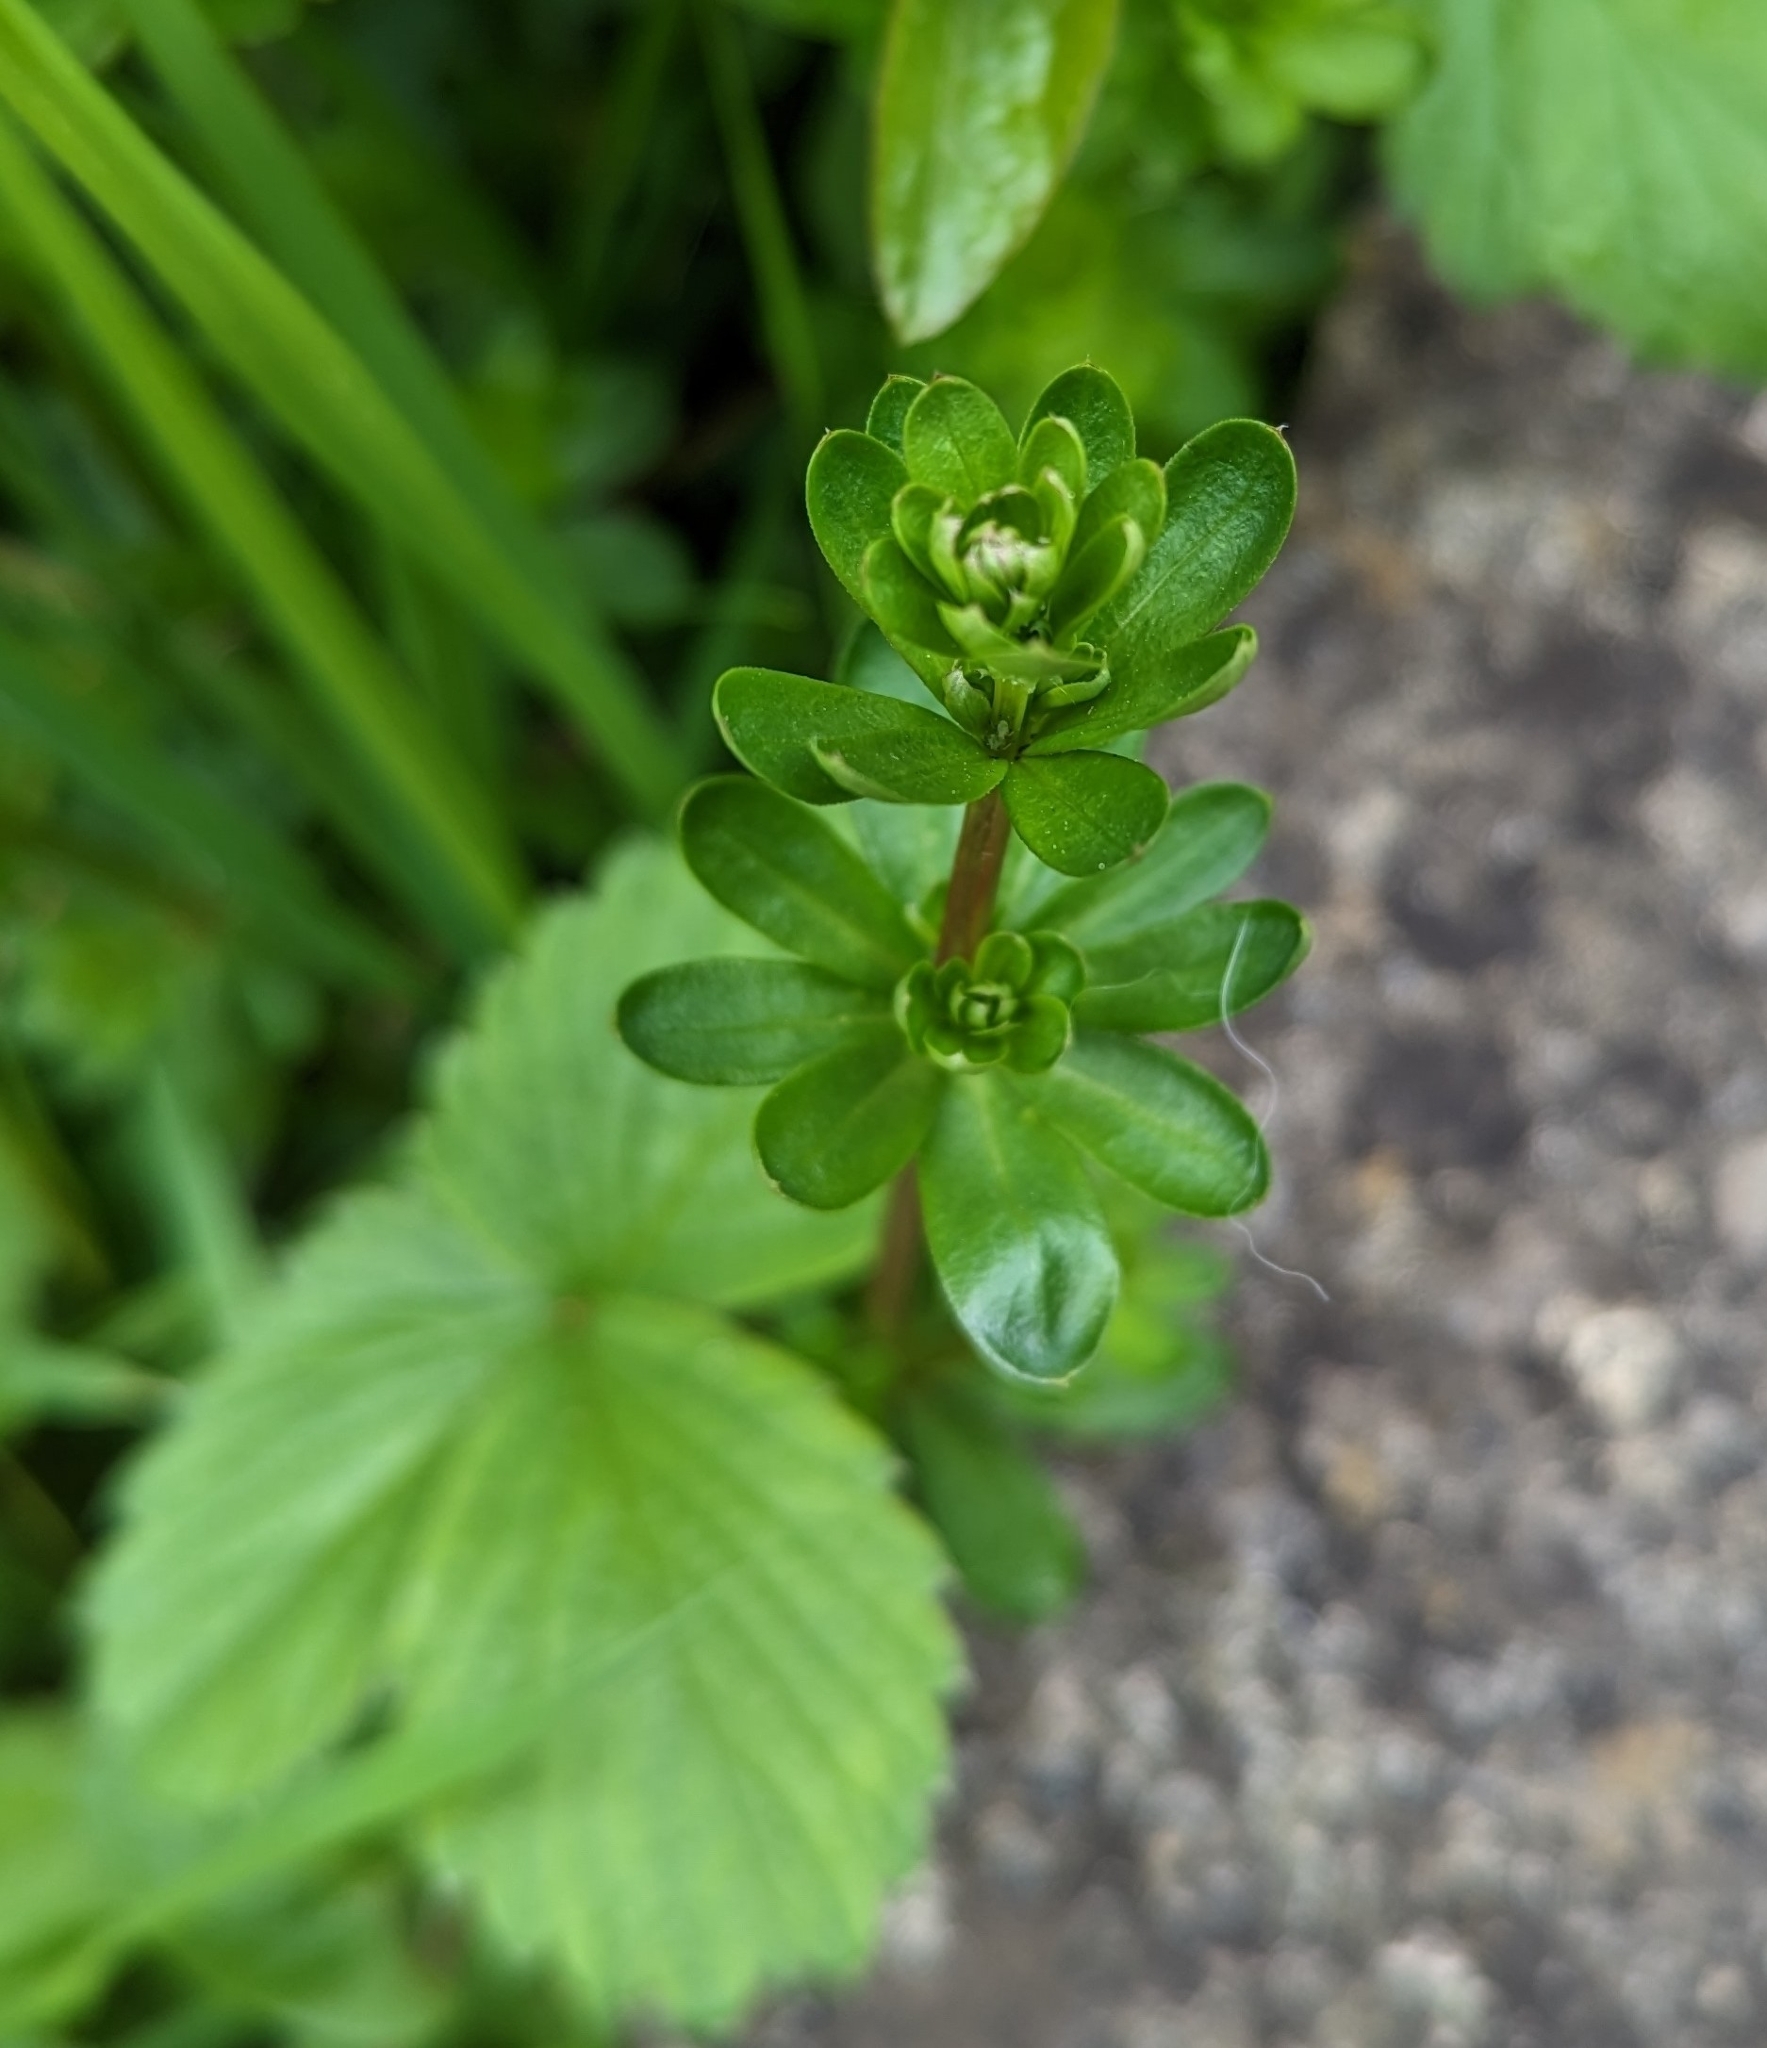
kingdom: Plantae
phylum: Tracheophyta
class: Magnoliopsida
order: Gentianales
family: Rubiaceae
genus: Galium
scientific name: Galium mollugo
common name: Hedge bedstraw
